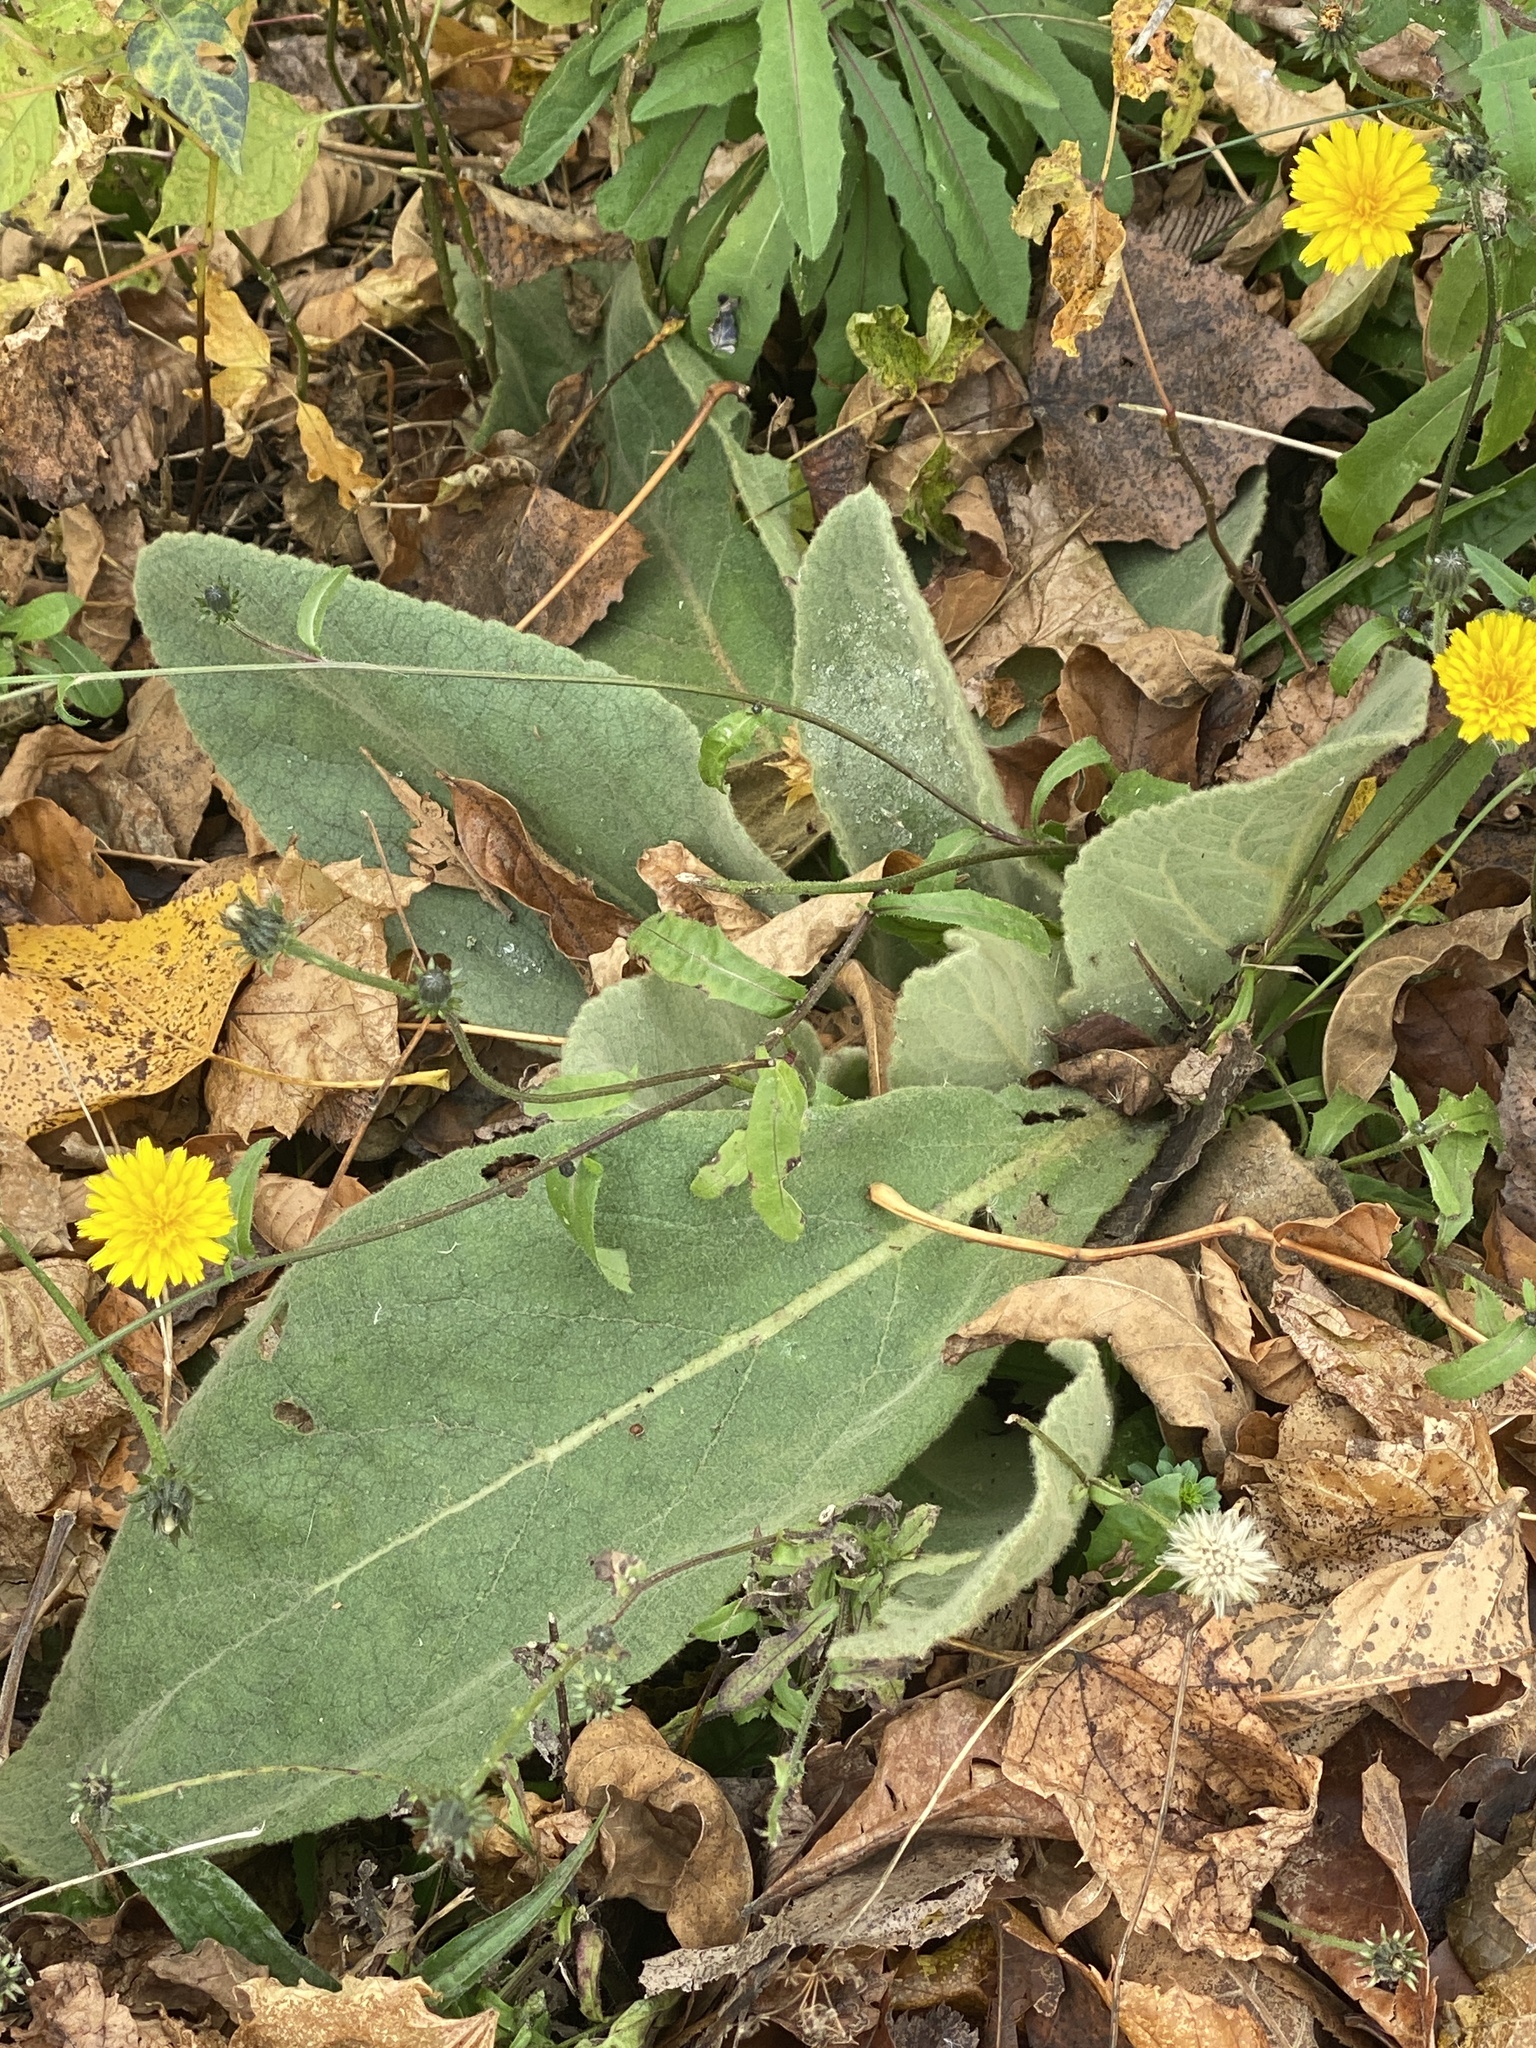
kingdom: Plantae
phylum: Tracheophyta
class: Magnoliopsida
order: Lamiales
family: Scrophulariaceae
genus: Verbascum
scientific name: Verbascum thapsus
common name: Common mullein
